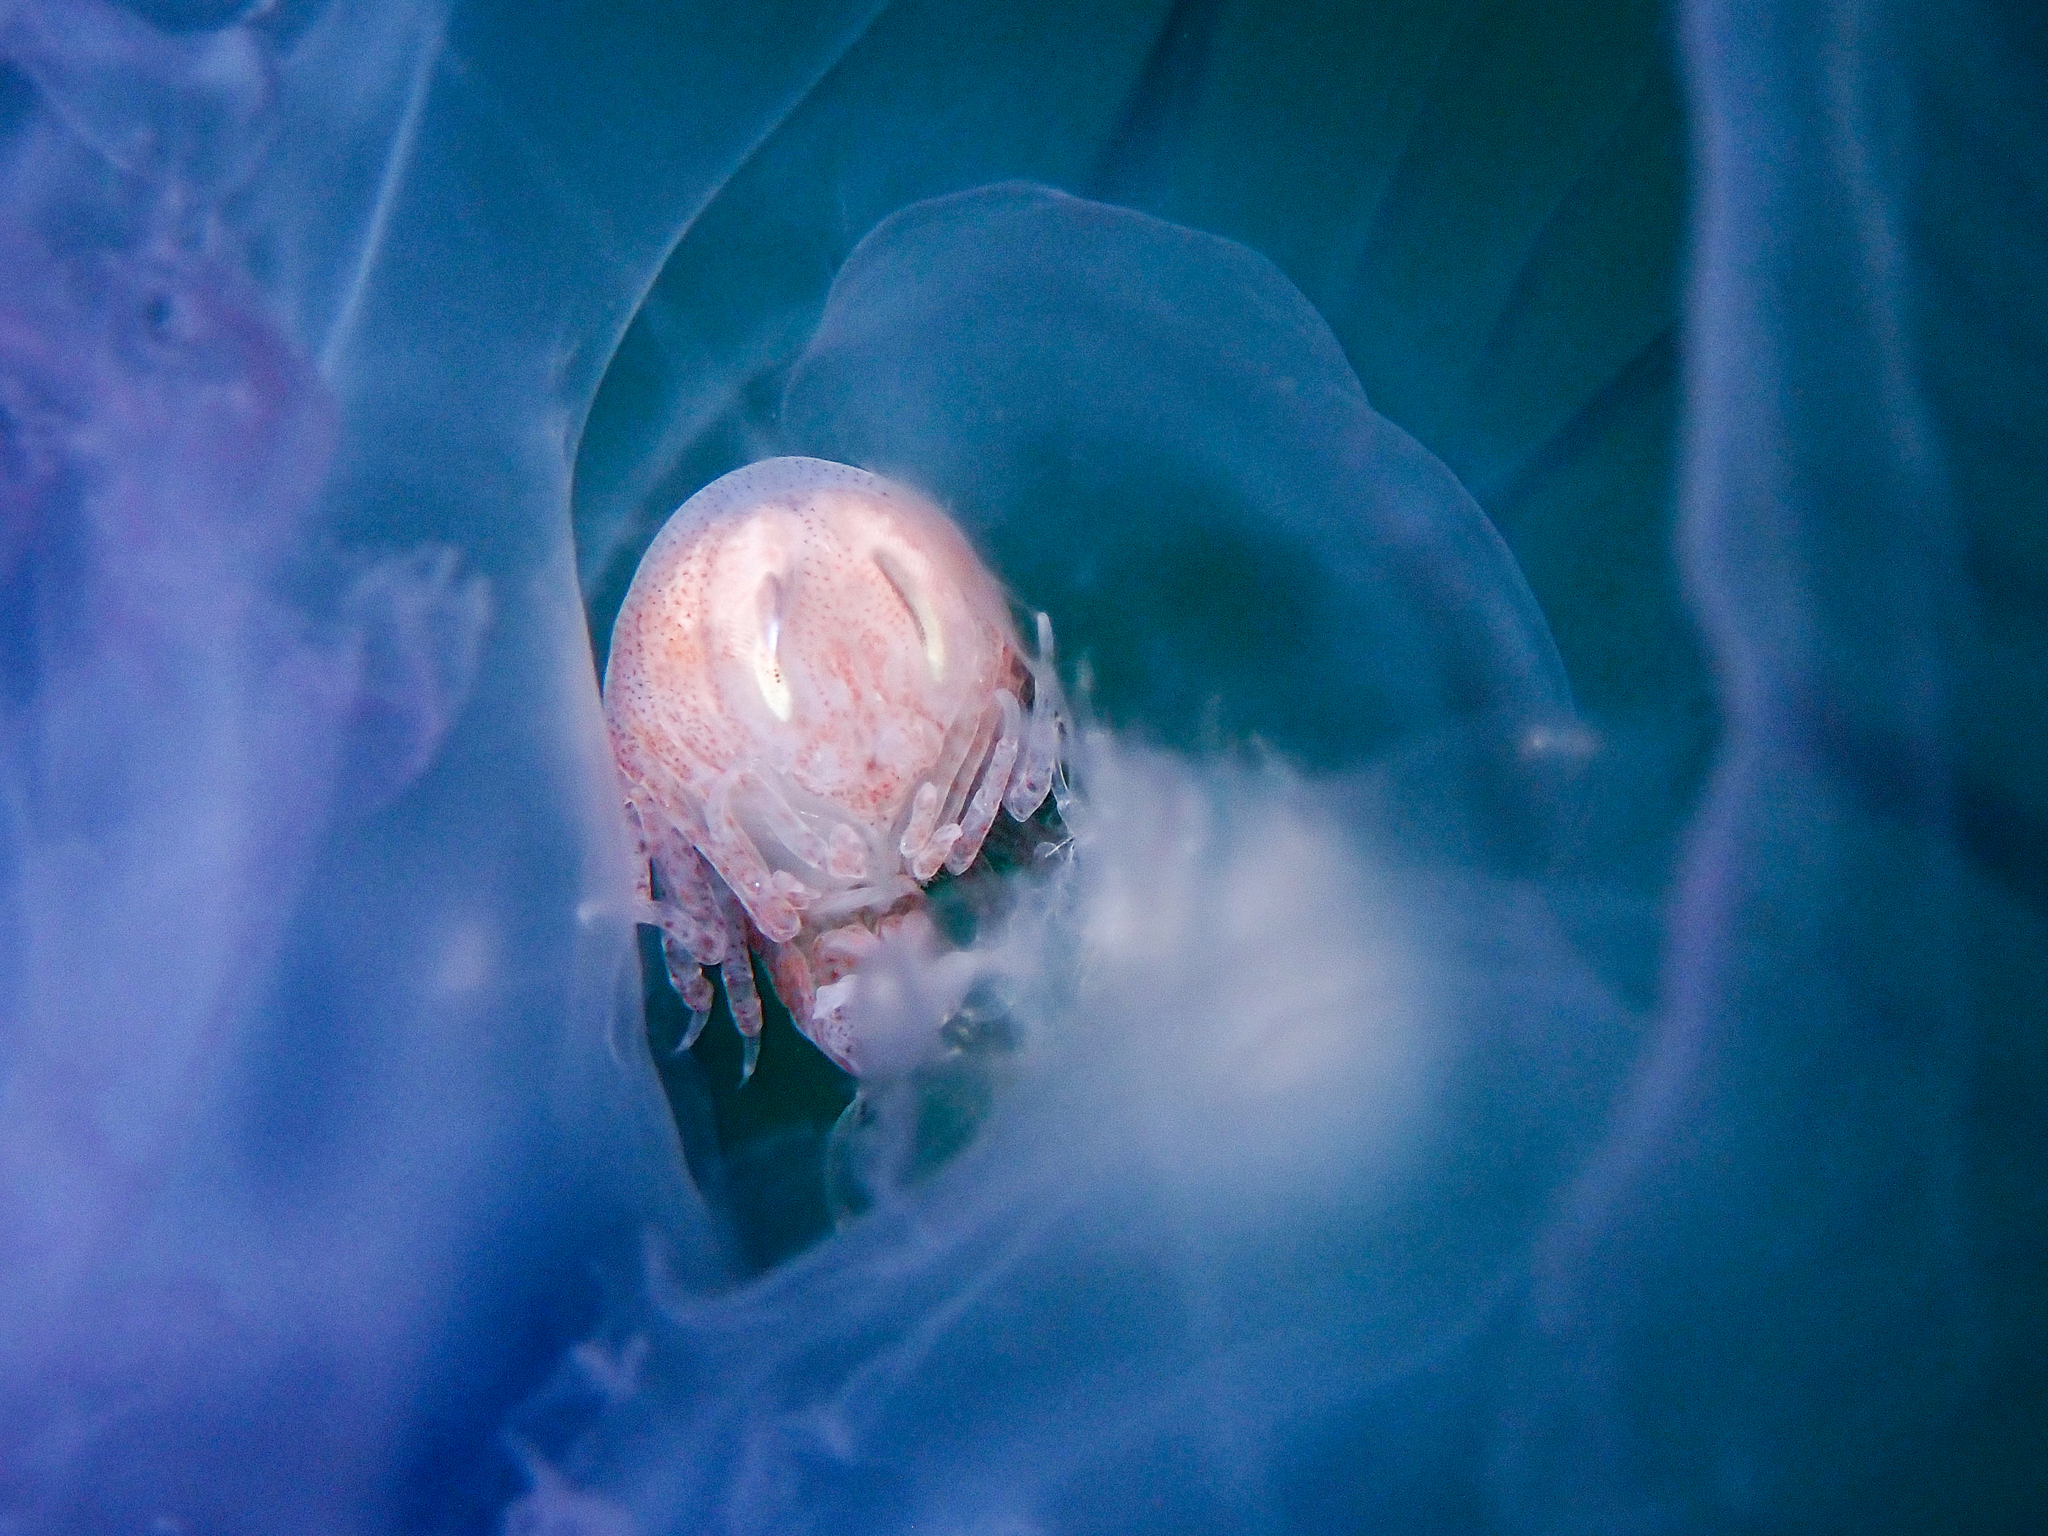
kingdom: Animalia
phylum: Arthropoda
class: Malacostraca
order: Amphipoda
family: Hyperiidae
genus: Hyperia
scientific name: Hyperia galba
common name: Big-eye amphipod
